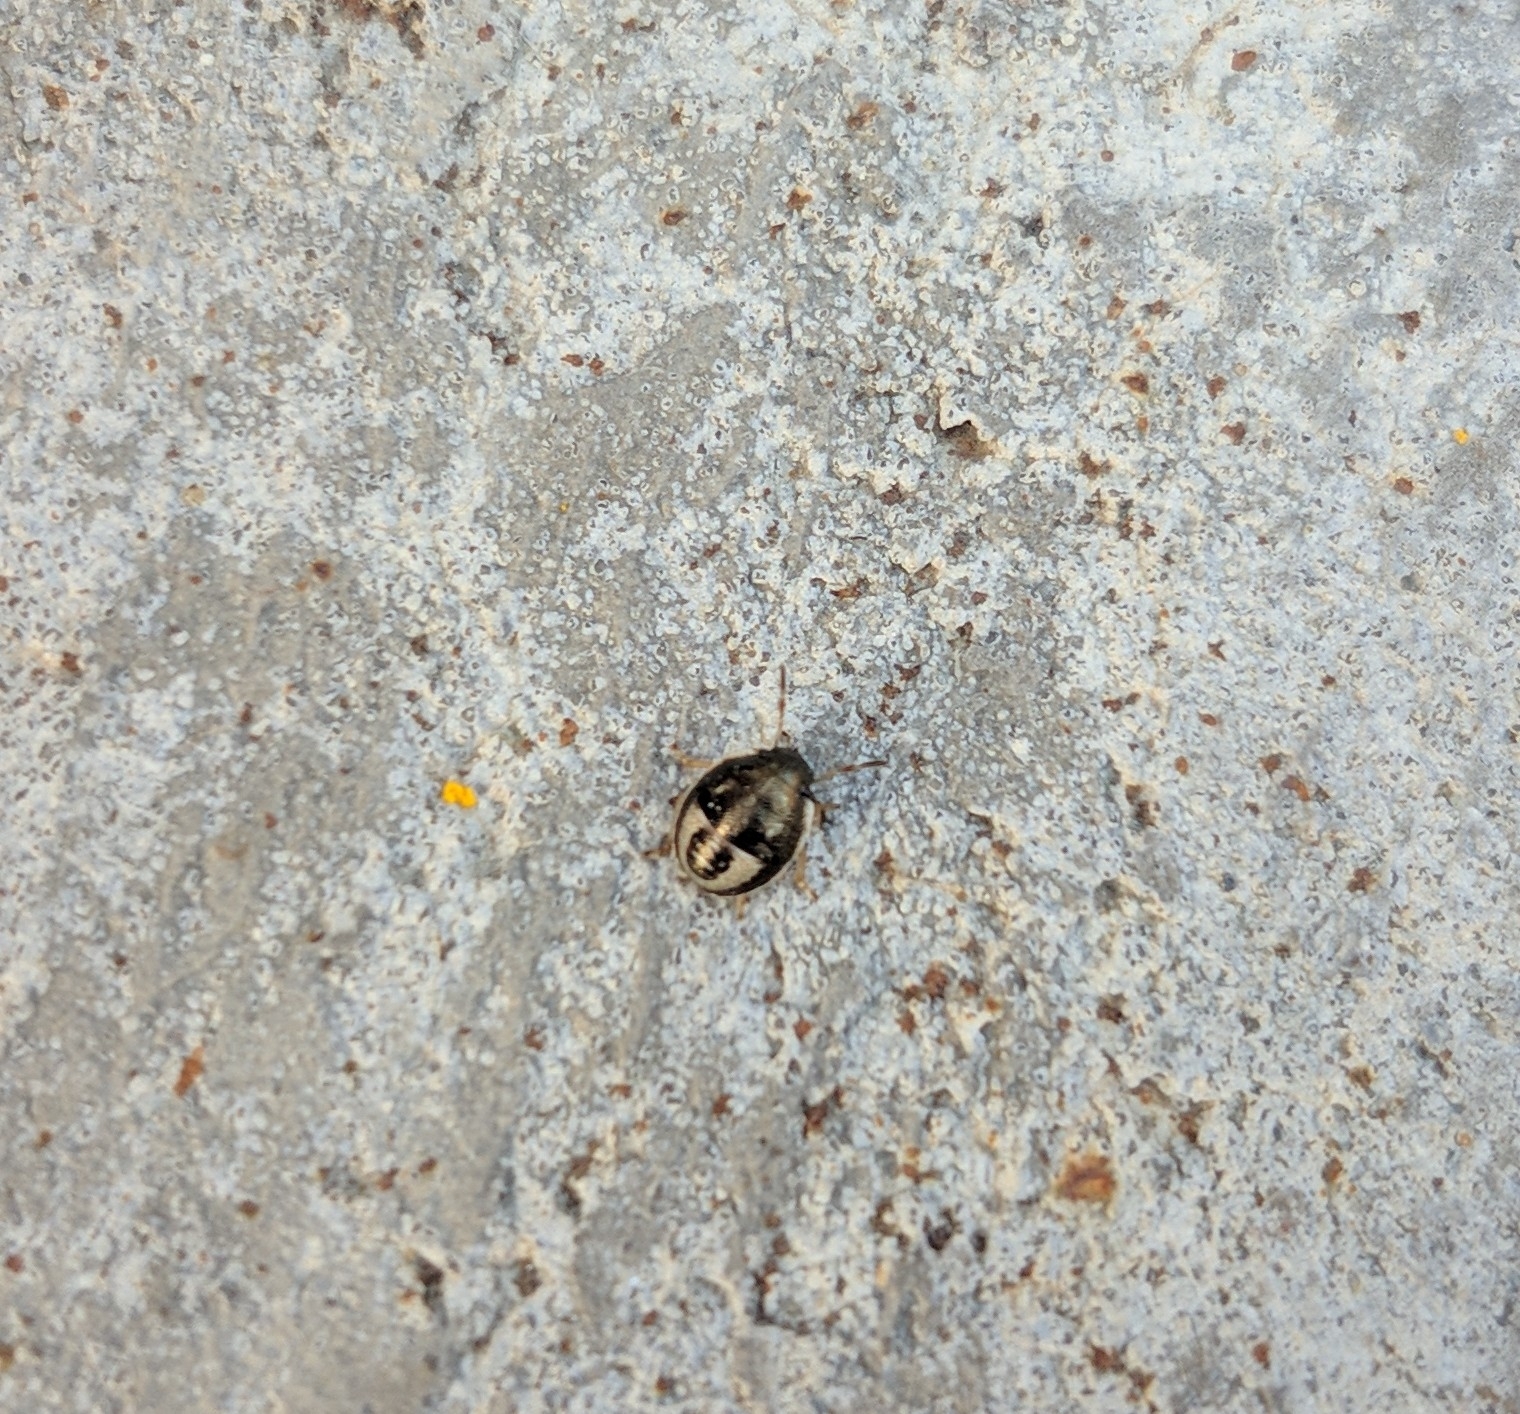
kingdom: Animalia
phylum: Arthropoda
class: Insecta
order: Hemiptera
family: Pentatomidae
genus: Holcostethus
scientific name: Holcostethus sphacelatus
